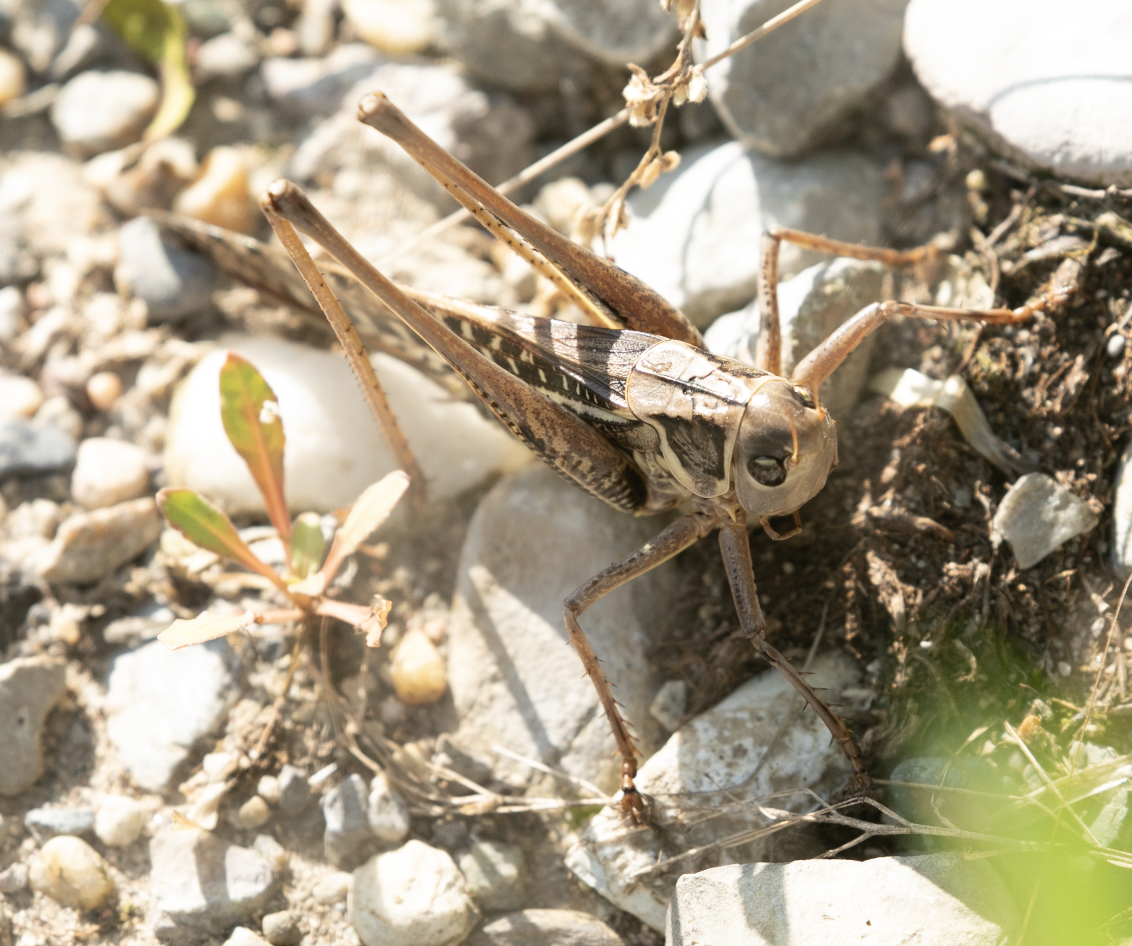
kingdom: Animalia
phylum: Arthropoda
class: Insecta
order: Orthoptera
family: Tettigoniidae
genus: Decticus
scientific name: Decticus albifrons
